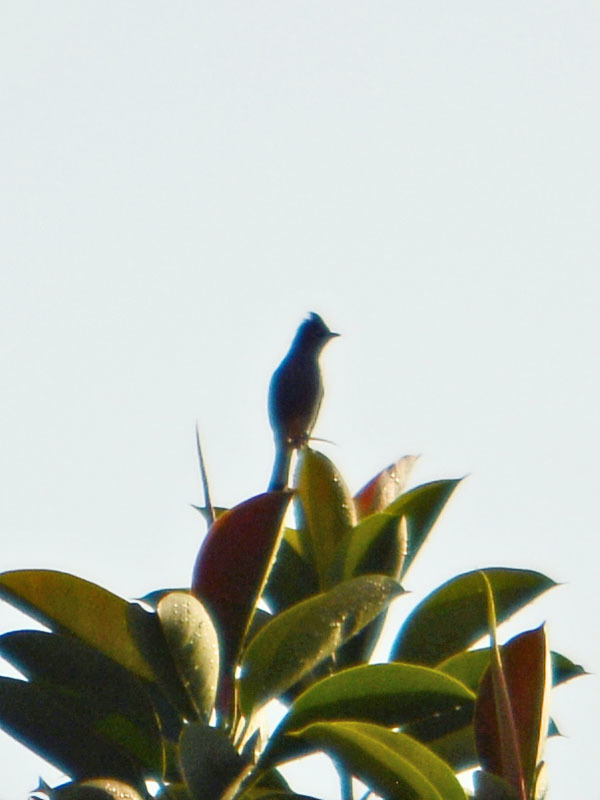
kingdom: Animalia
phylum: Chordata
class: Aves
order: Passeriformes
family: Ptilogonatidae
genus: Ptilogonys
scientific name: Ptilogonys cinereus
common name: Gray silky-flycatcher
